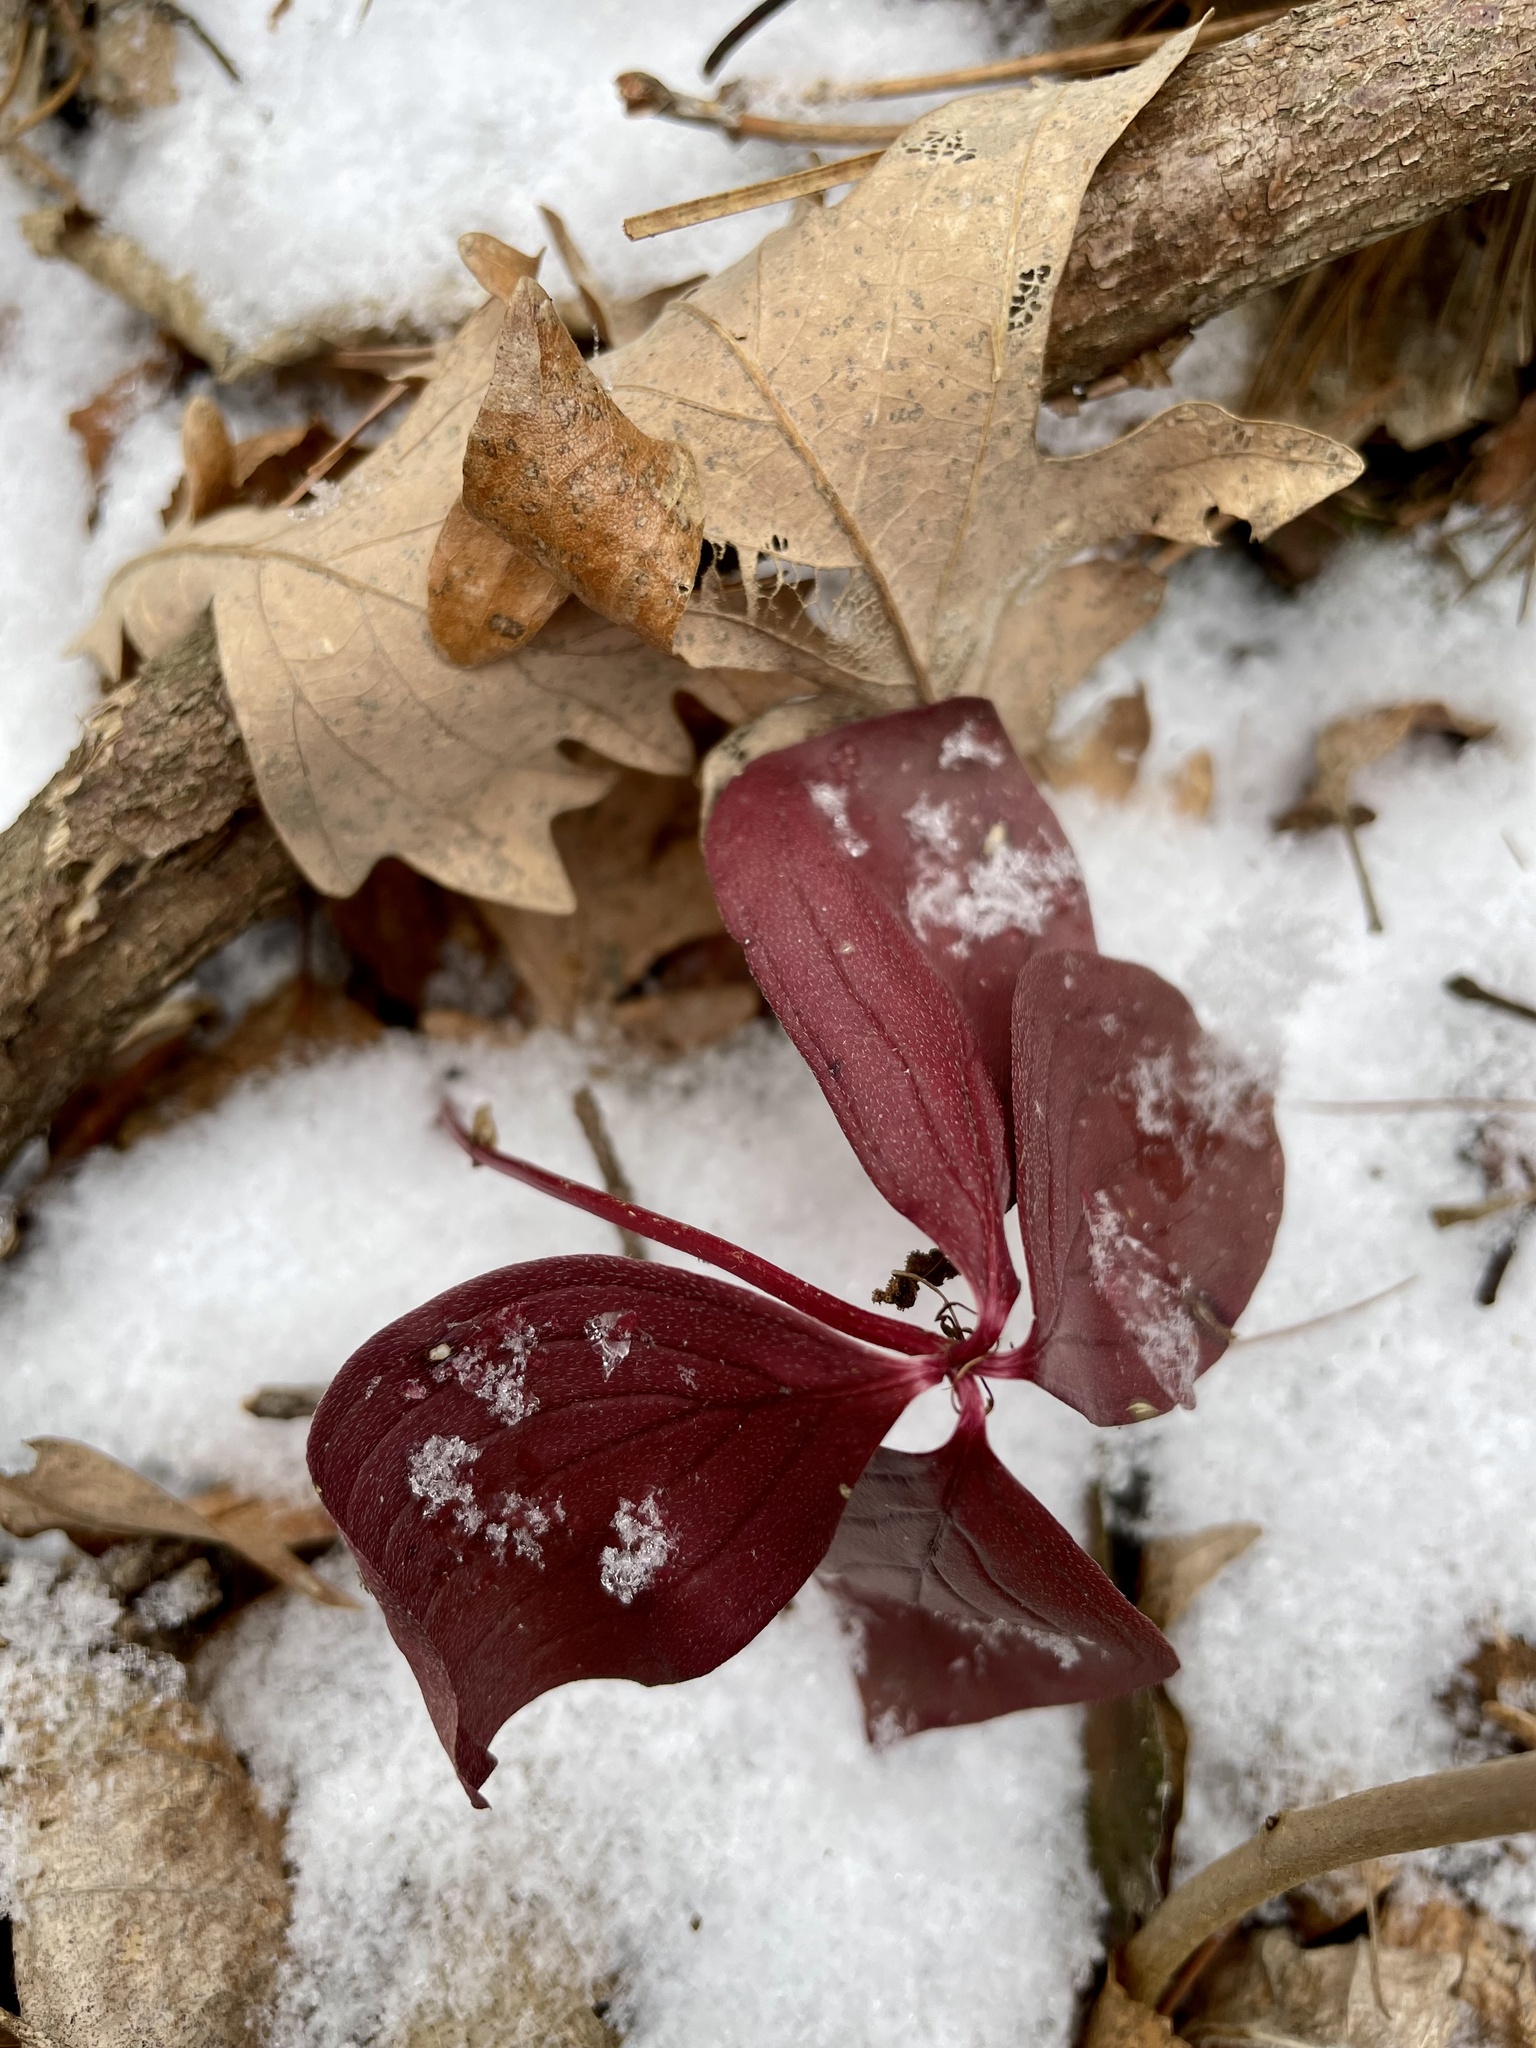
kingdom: Plantae
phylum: Tracheophyta
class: Magnoliopsida
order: Cornales
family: Cornaceae
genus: Cornus
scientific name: Cornus canadensis
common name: Creeping dogwood
